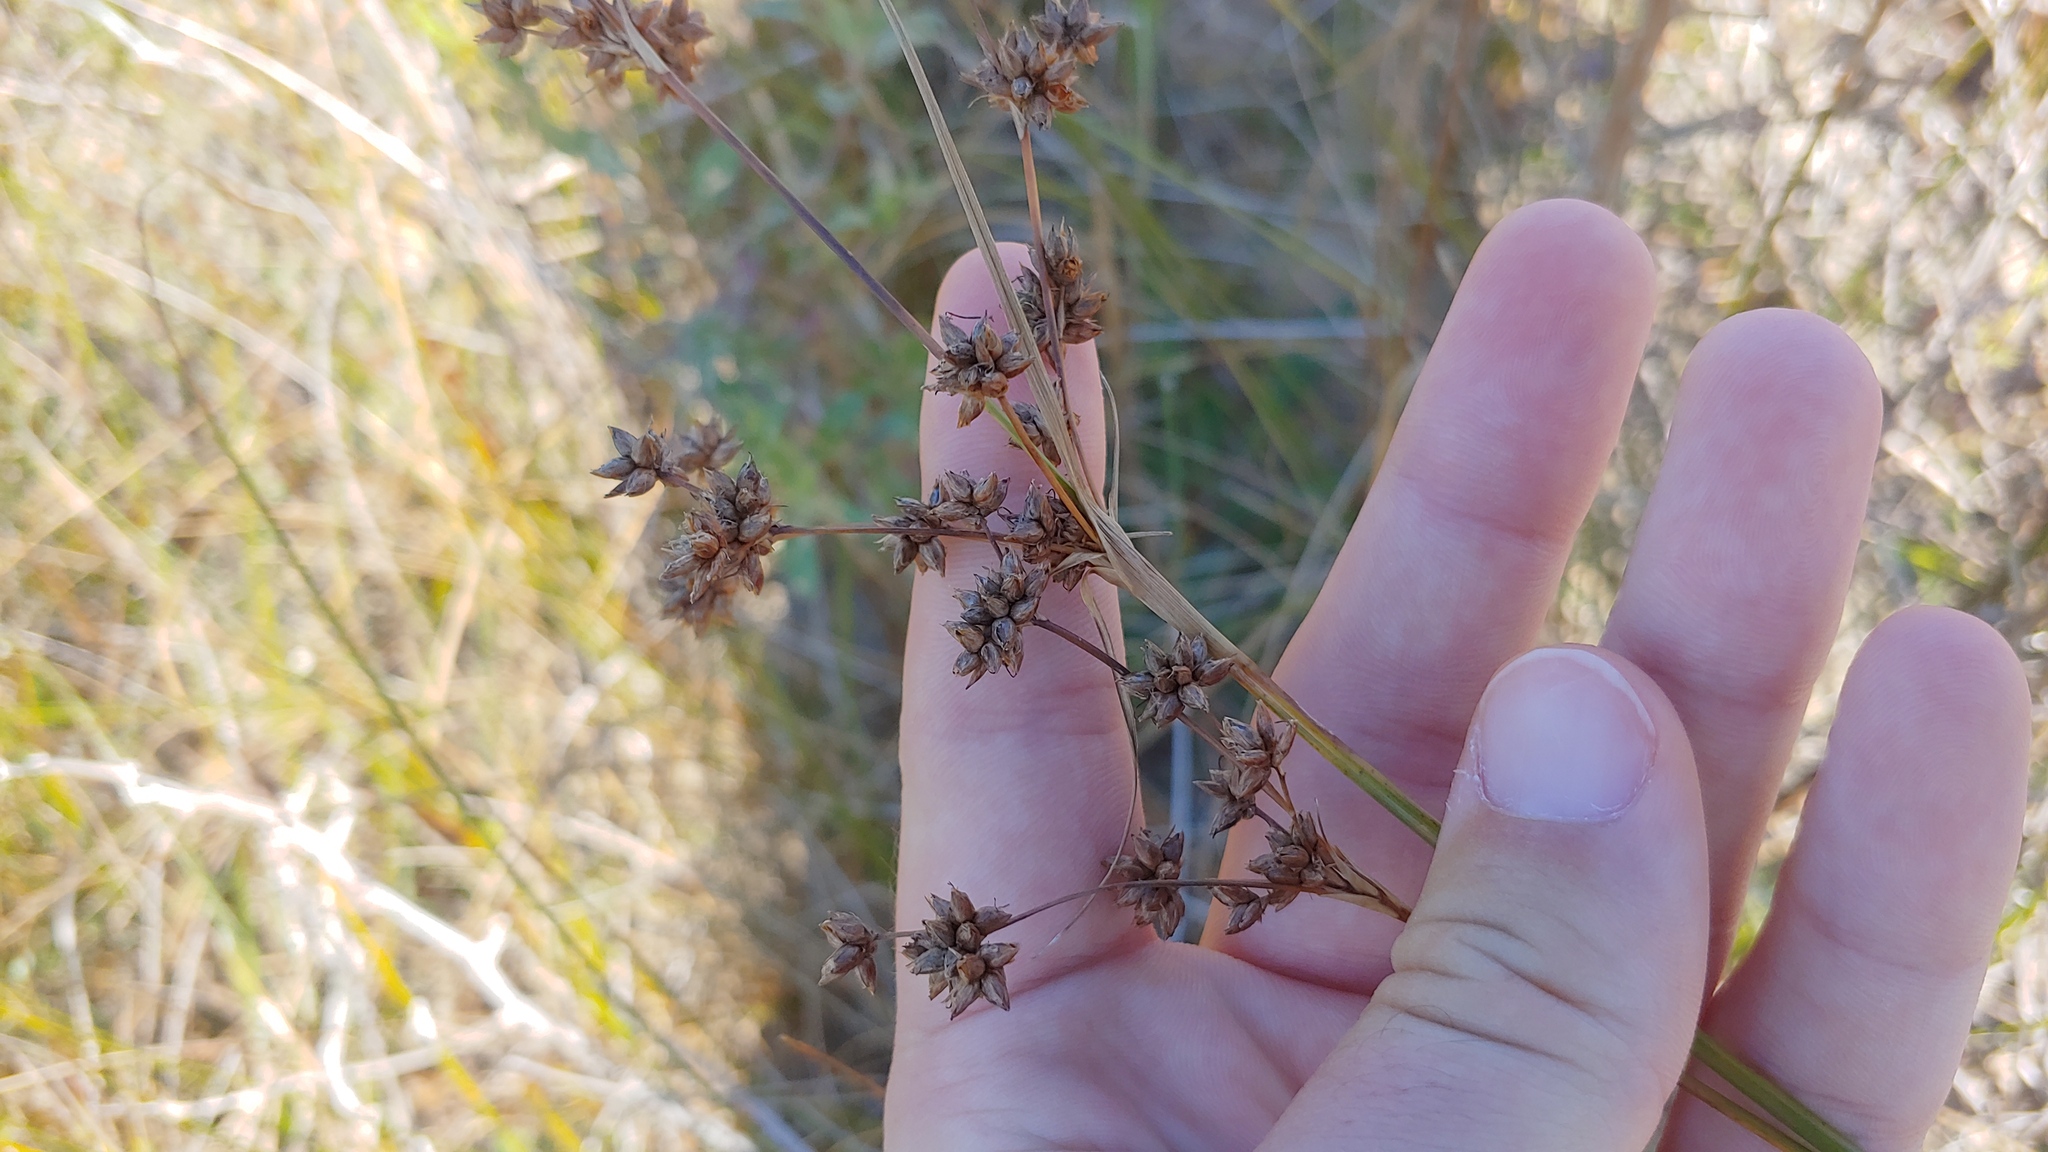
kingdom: Plantae
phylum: Tracheophyta
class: Liliopsida
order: Poales
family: Cyperaceae
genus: Cladium
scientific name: Cladium mariscoides
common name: Smooth sawgrass
